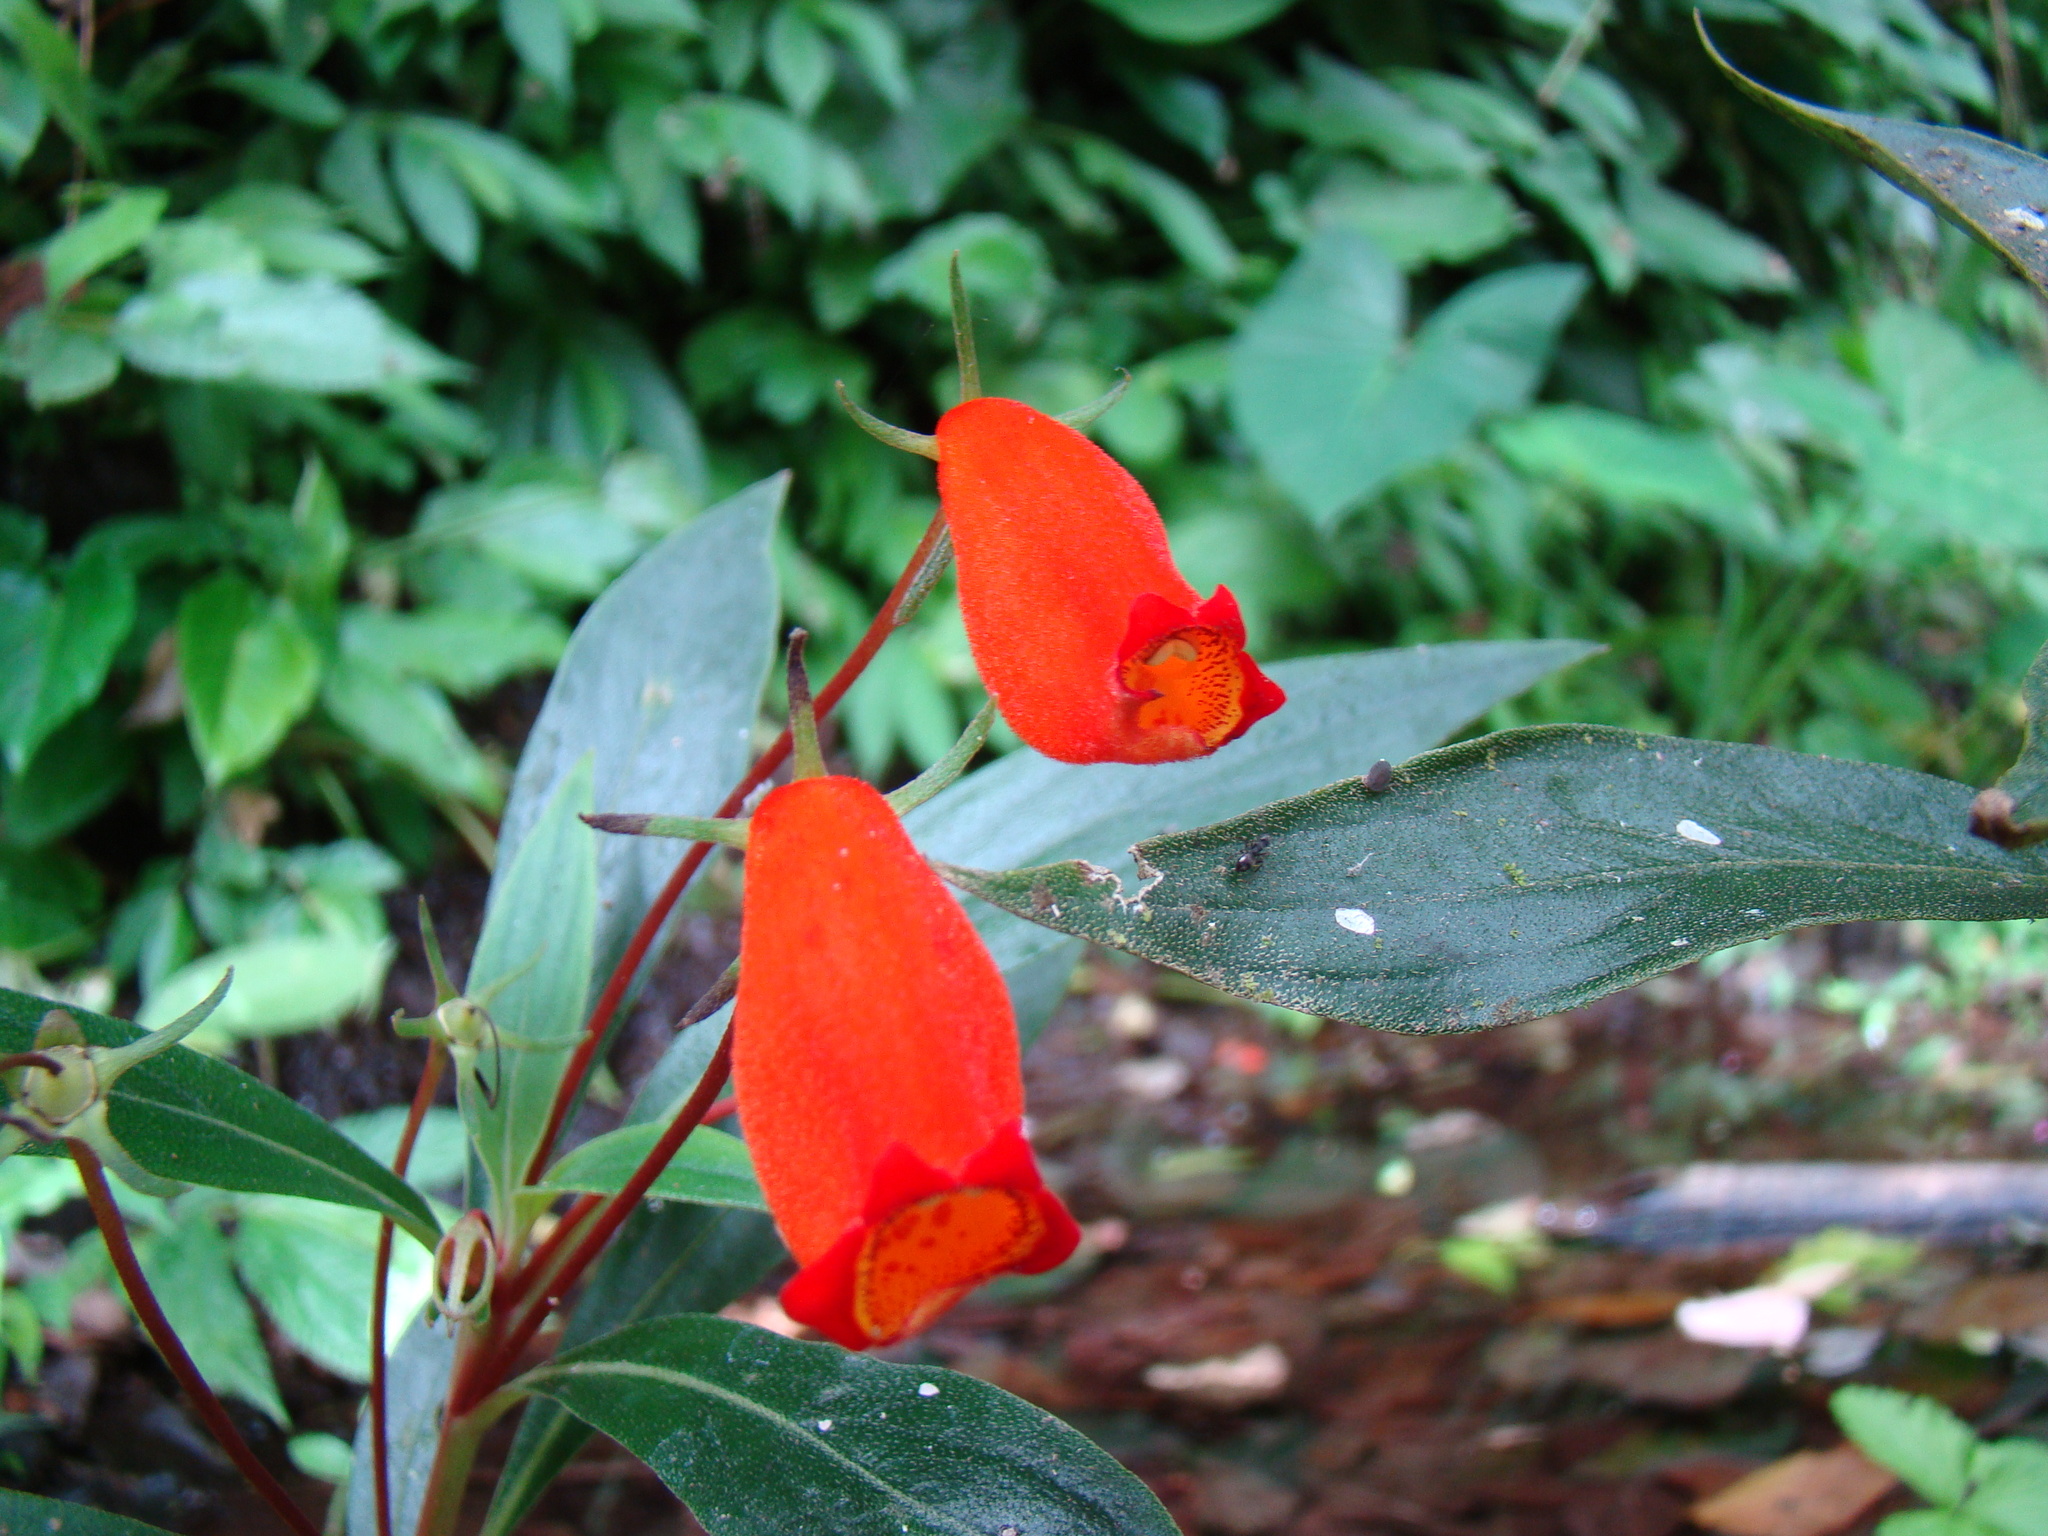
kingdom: Plantae
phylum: Tracheophyta
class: Magnoliopsida
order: Lamiales
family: Gesneriaceae
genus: Seemannia
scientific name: Seemannia sylvatica
